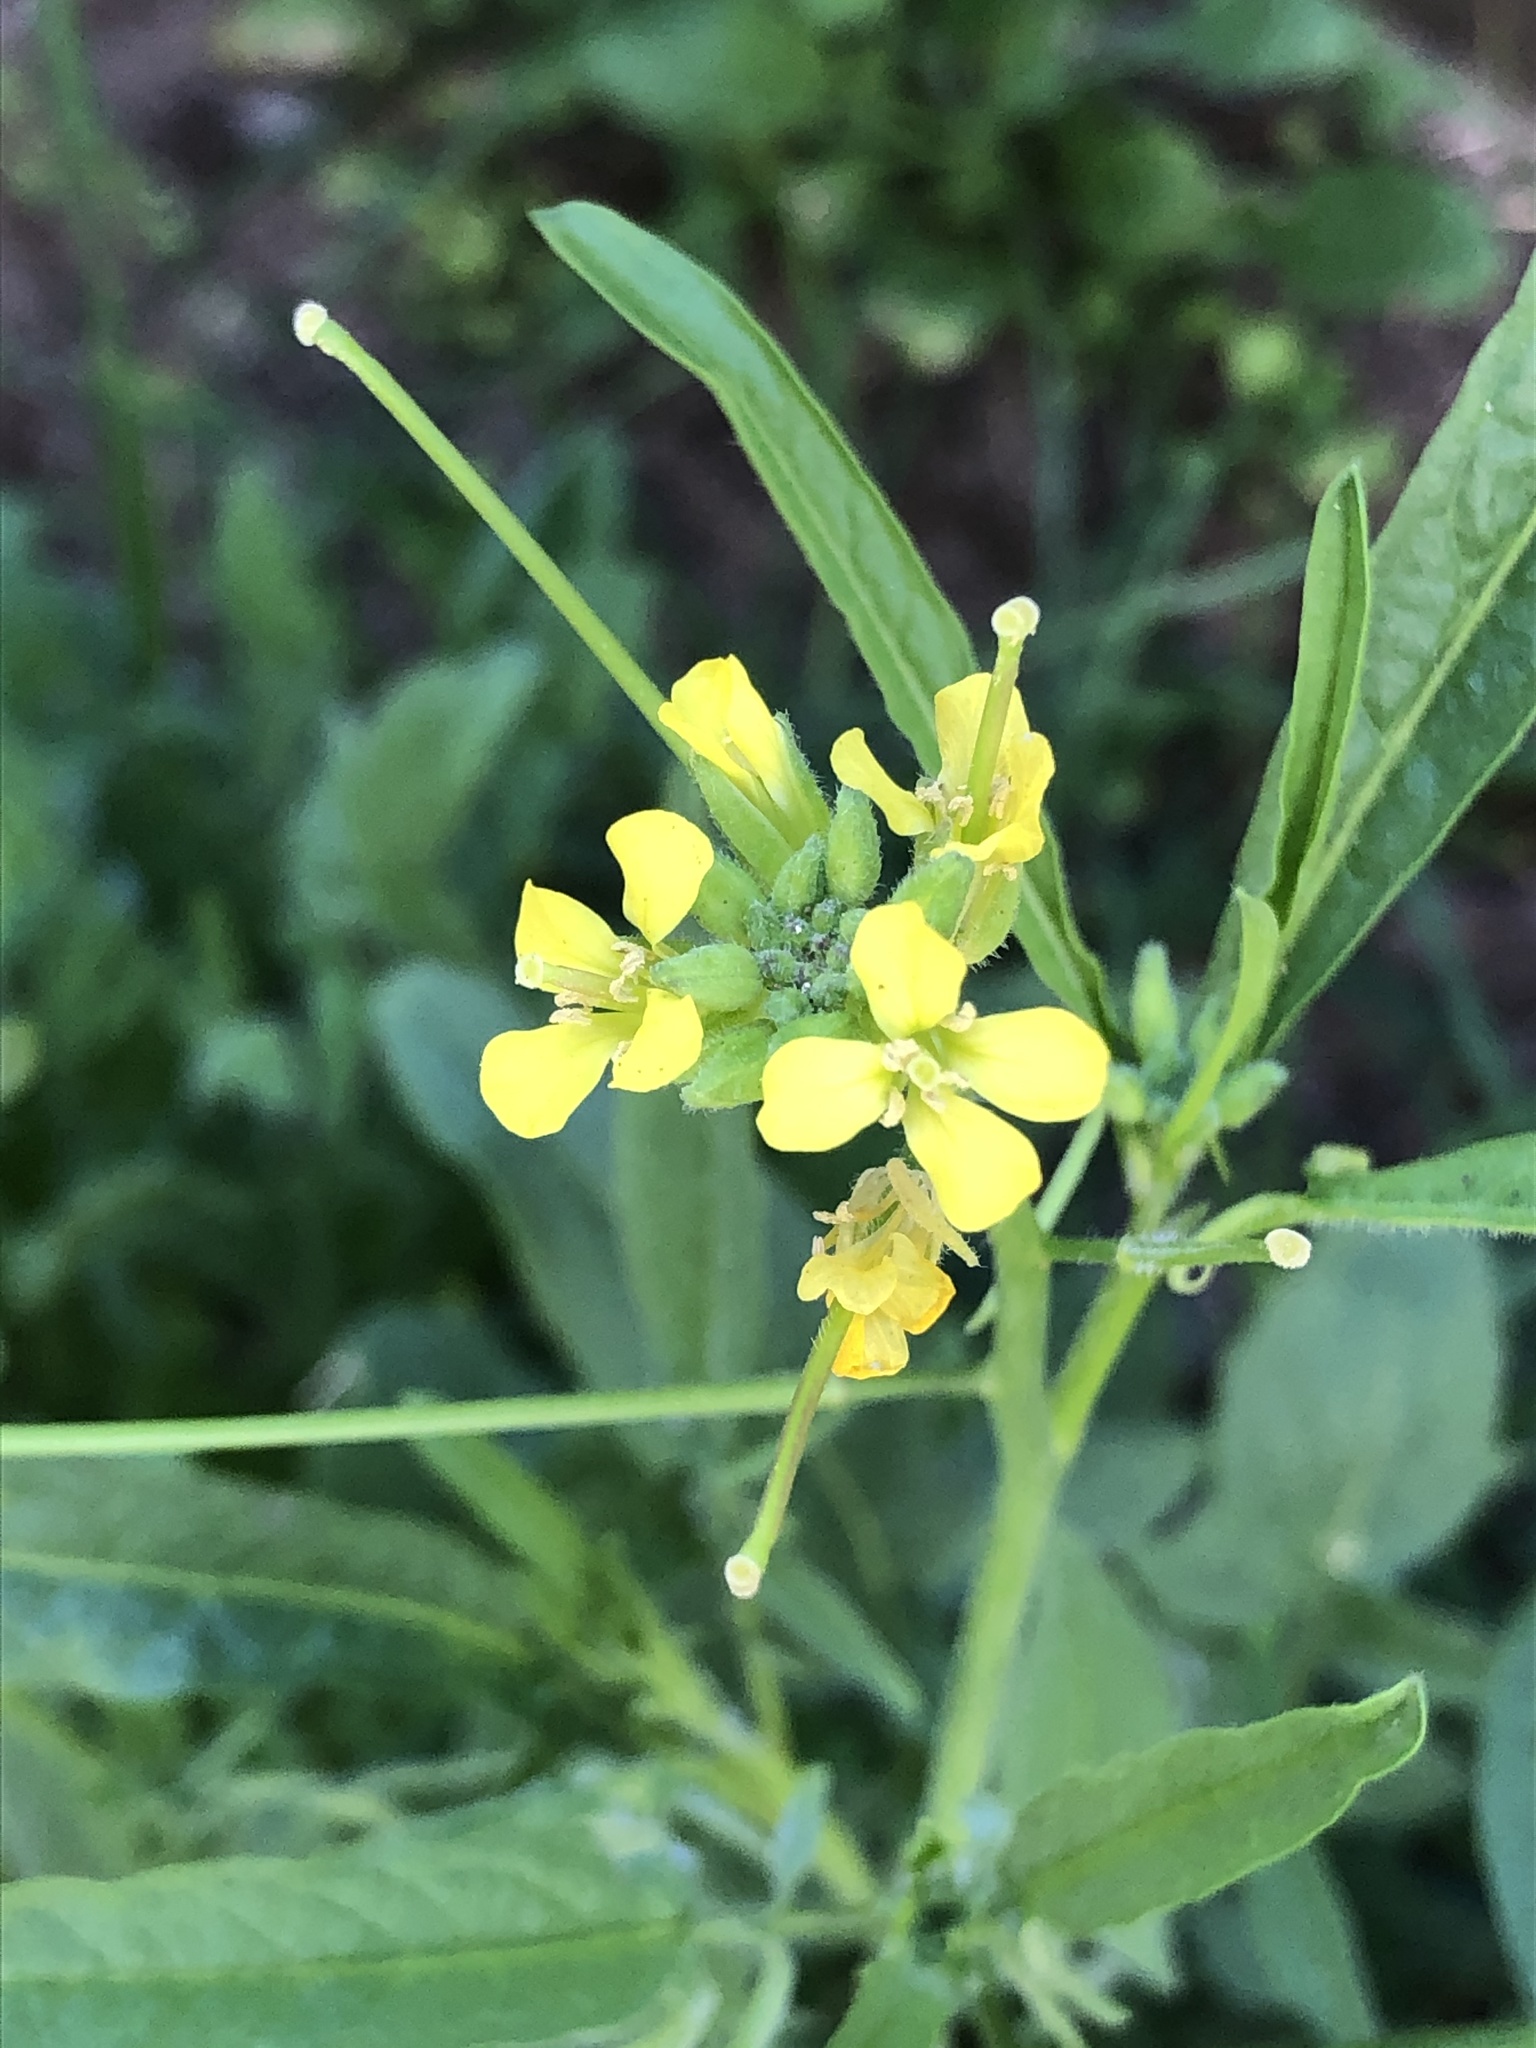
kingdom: Plantae
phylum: Tracheophyta
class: Magnoliopsida
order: Brassicales
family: Brassicaceae
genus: Sisymbrium
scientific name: Sisymbrium orientale
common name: Eastern rocket
